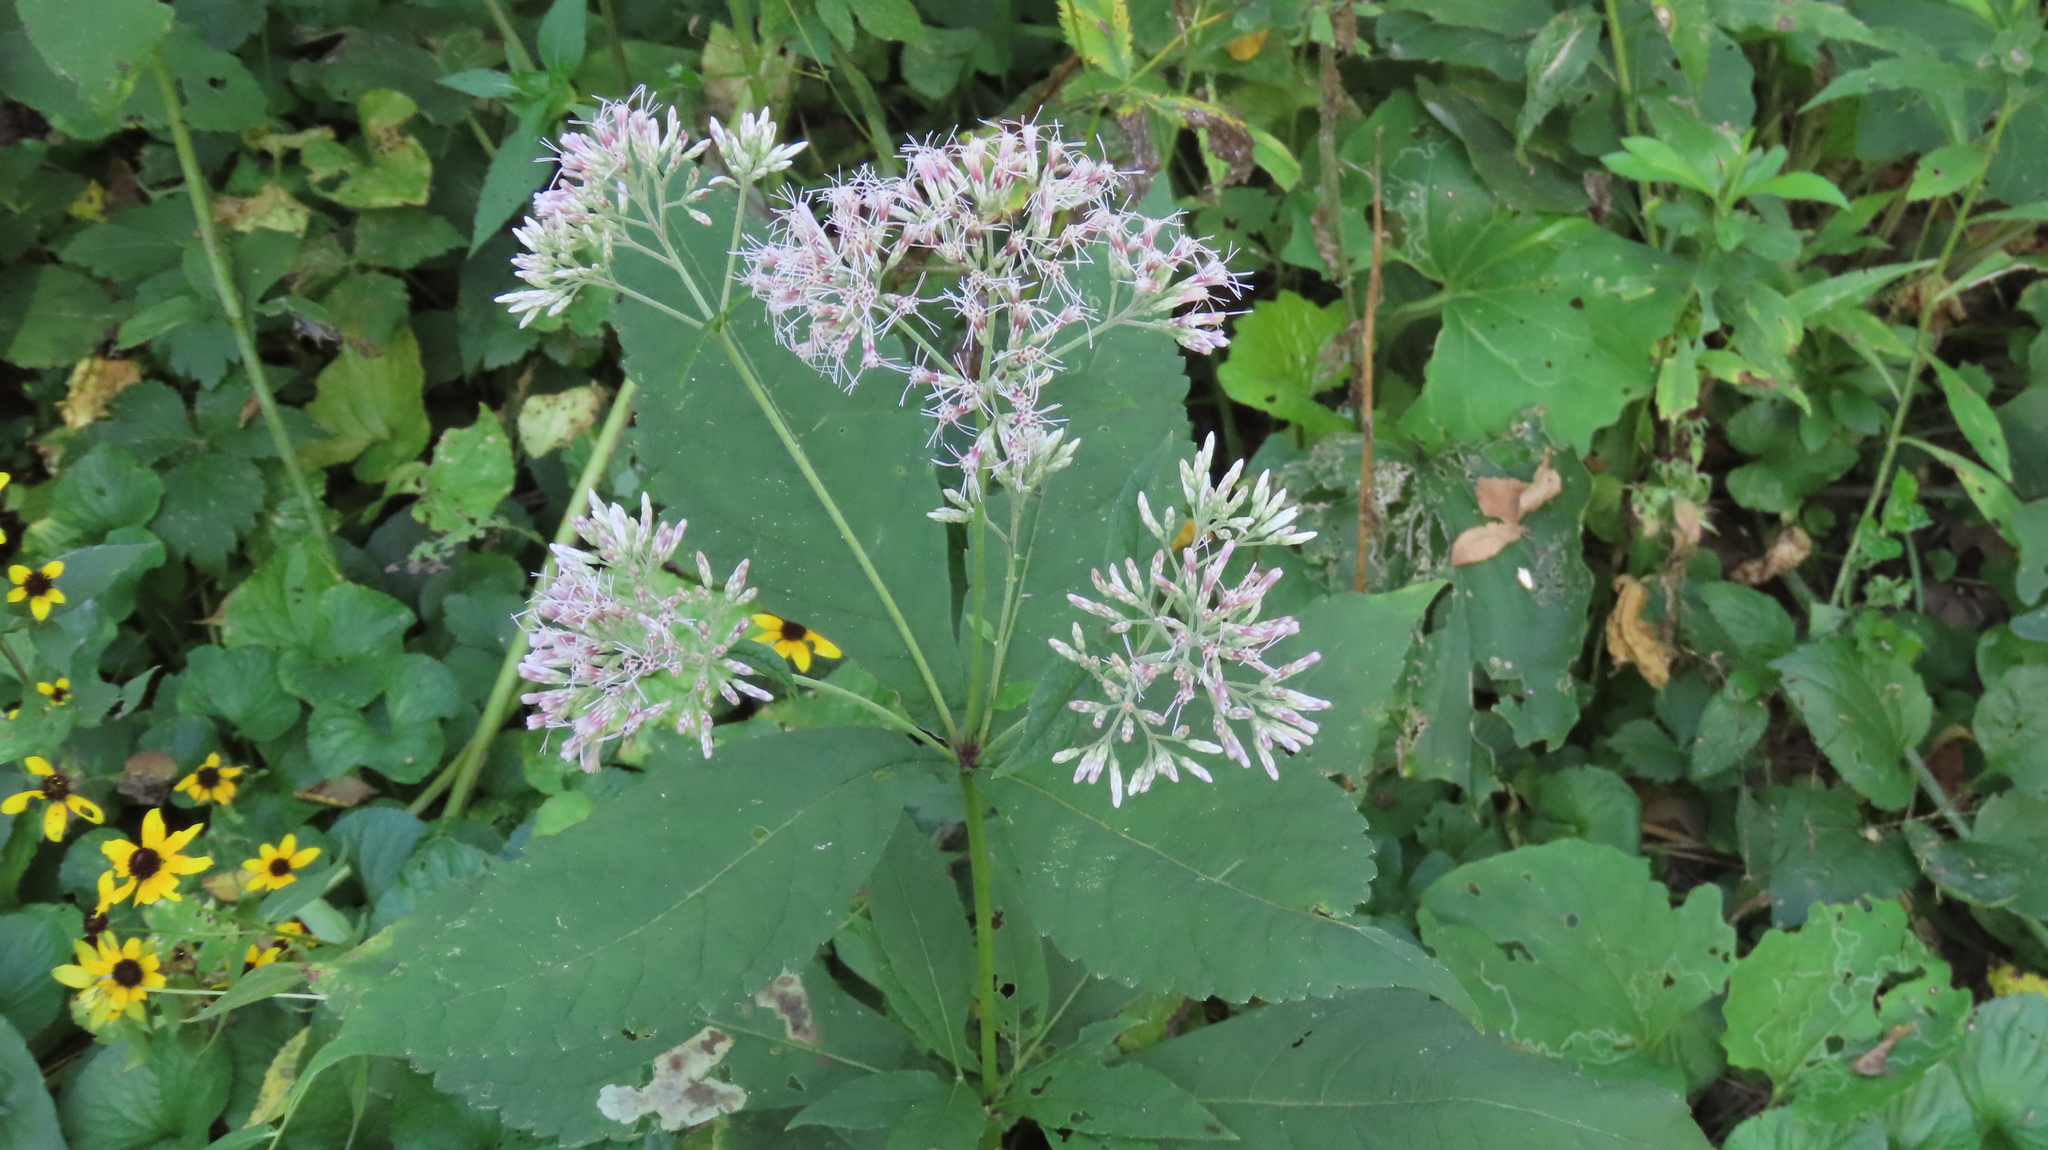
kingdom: Plantae
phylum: Tracheophyta
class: Magnoliopsida
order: Asterales
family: Asteraceae
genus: Eutrochium
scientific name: Eutrochium purpureum
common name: Gravelroot
